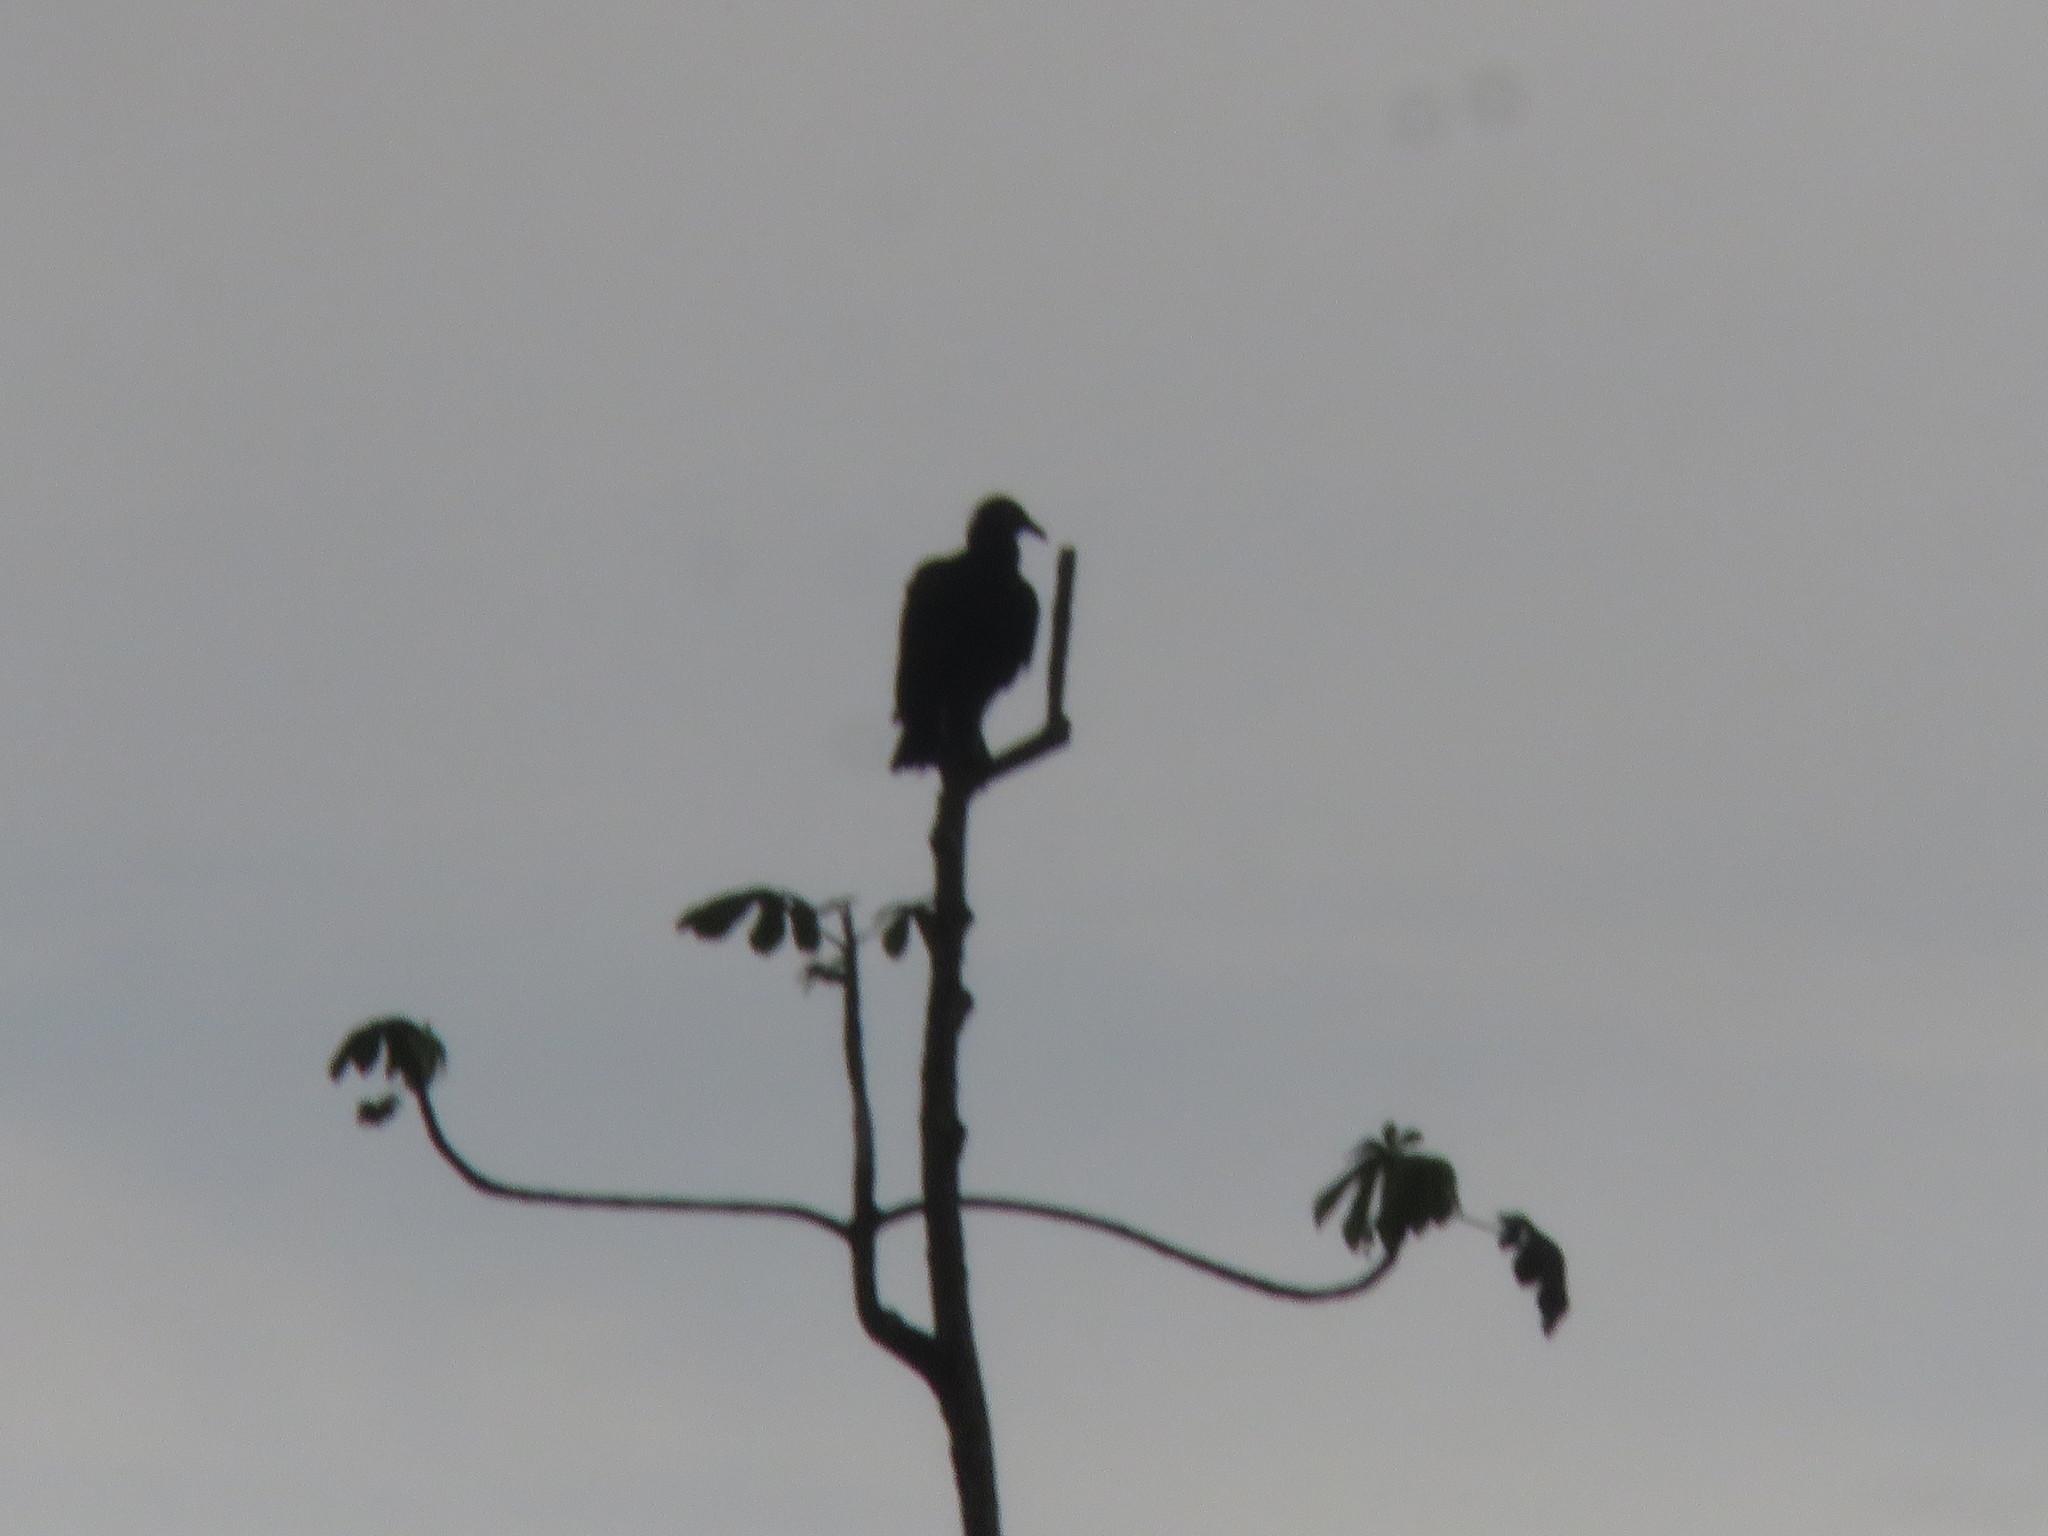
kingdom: Animalia
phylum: Chordata
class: Aves
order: Accipitriformes
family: Cathartidae
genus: Coragyps
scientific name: Coragyps atratus
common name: Black vulture
